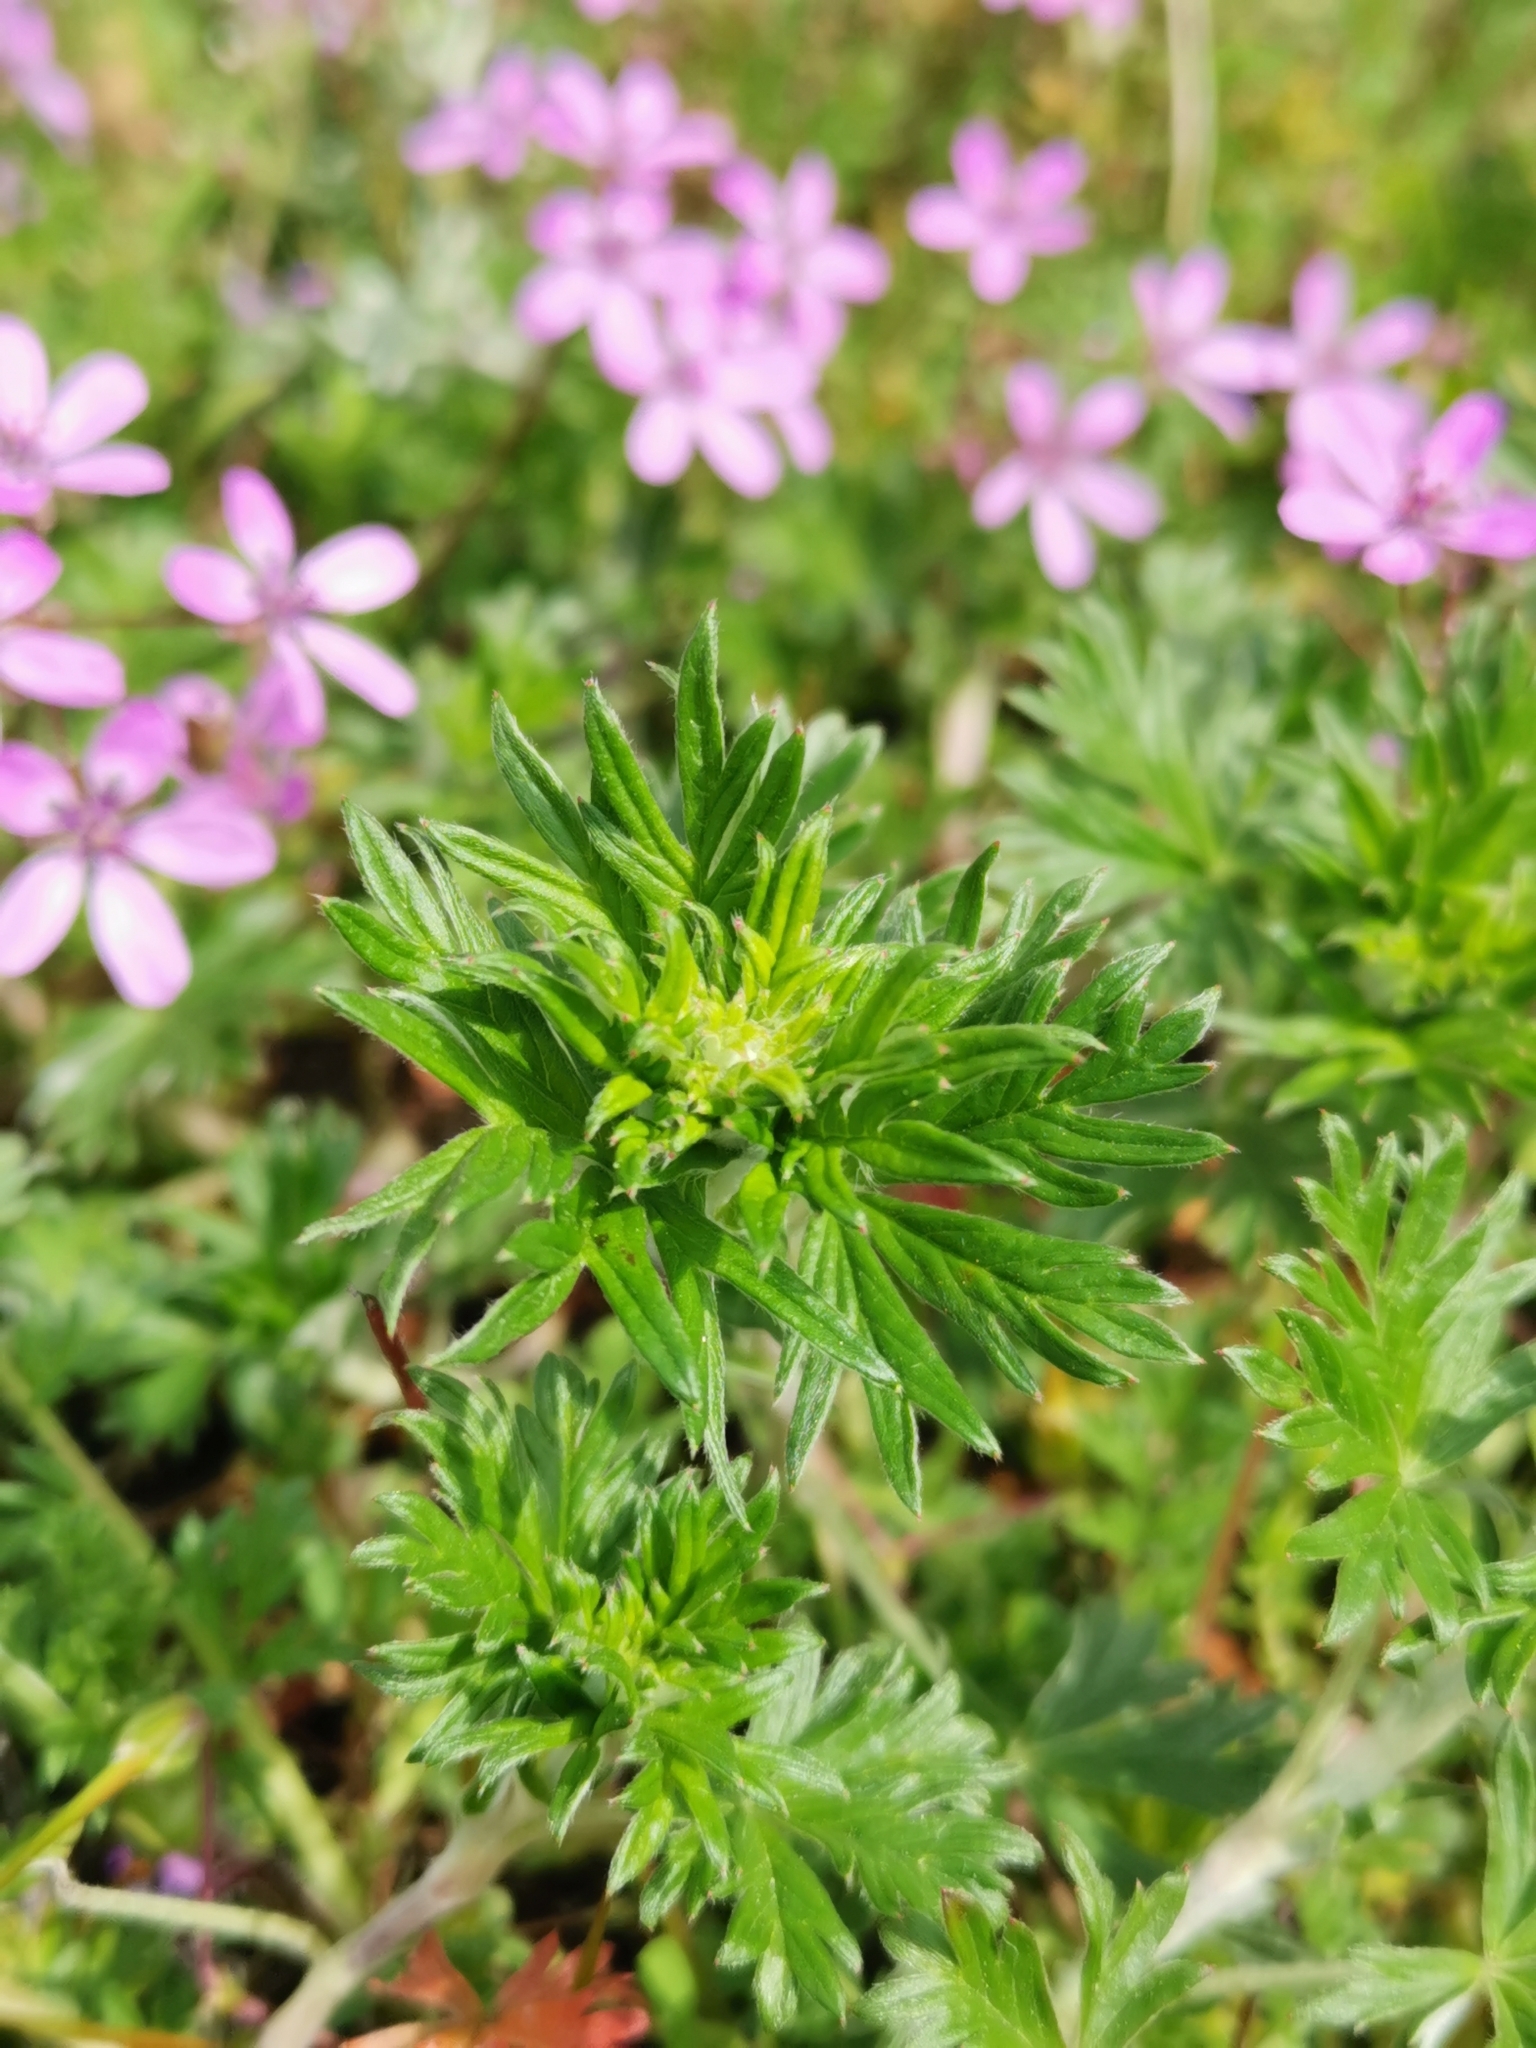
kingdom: Plantae
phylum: Tracheophyta
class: Magnoliopsida
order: Rosales
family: Rosaceae
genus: Potentilla
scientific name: Potentilla argentea
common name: Hoary cinquefoil
